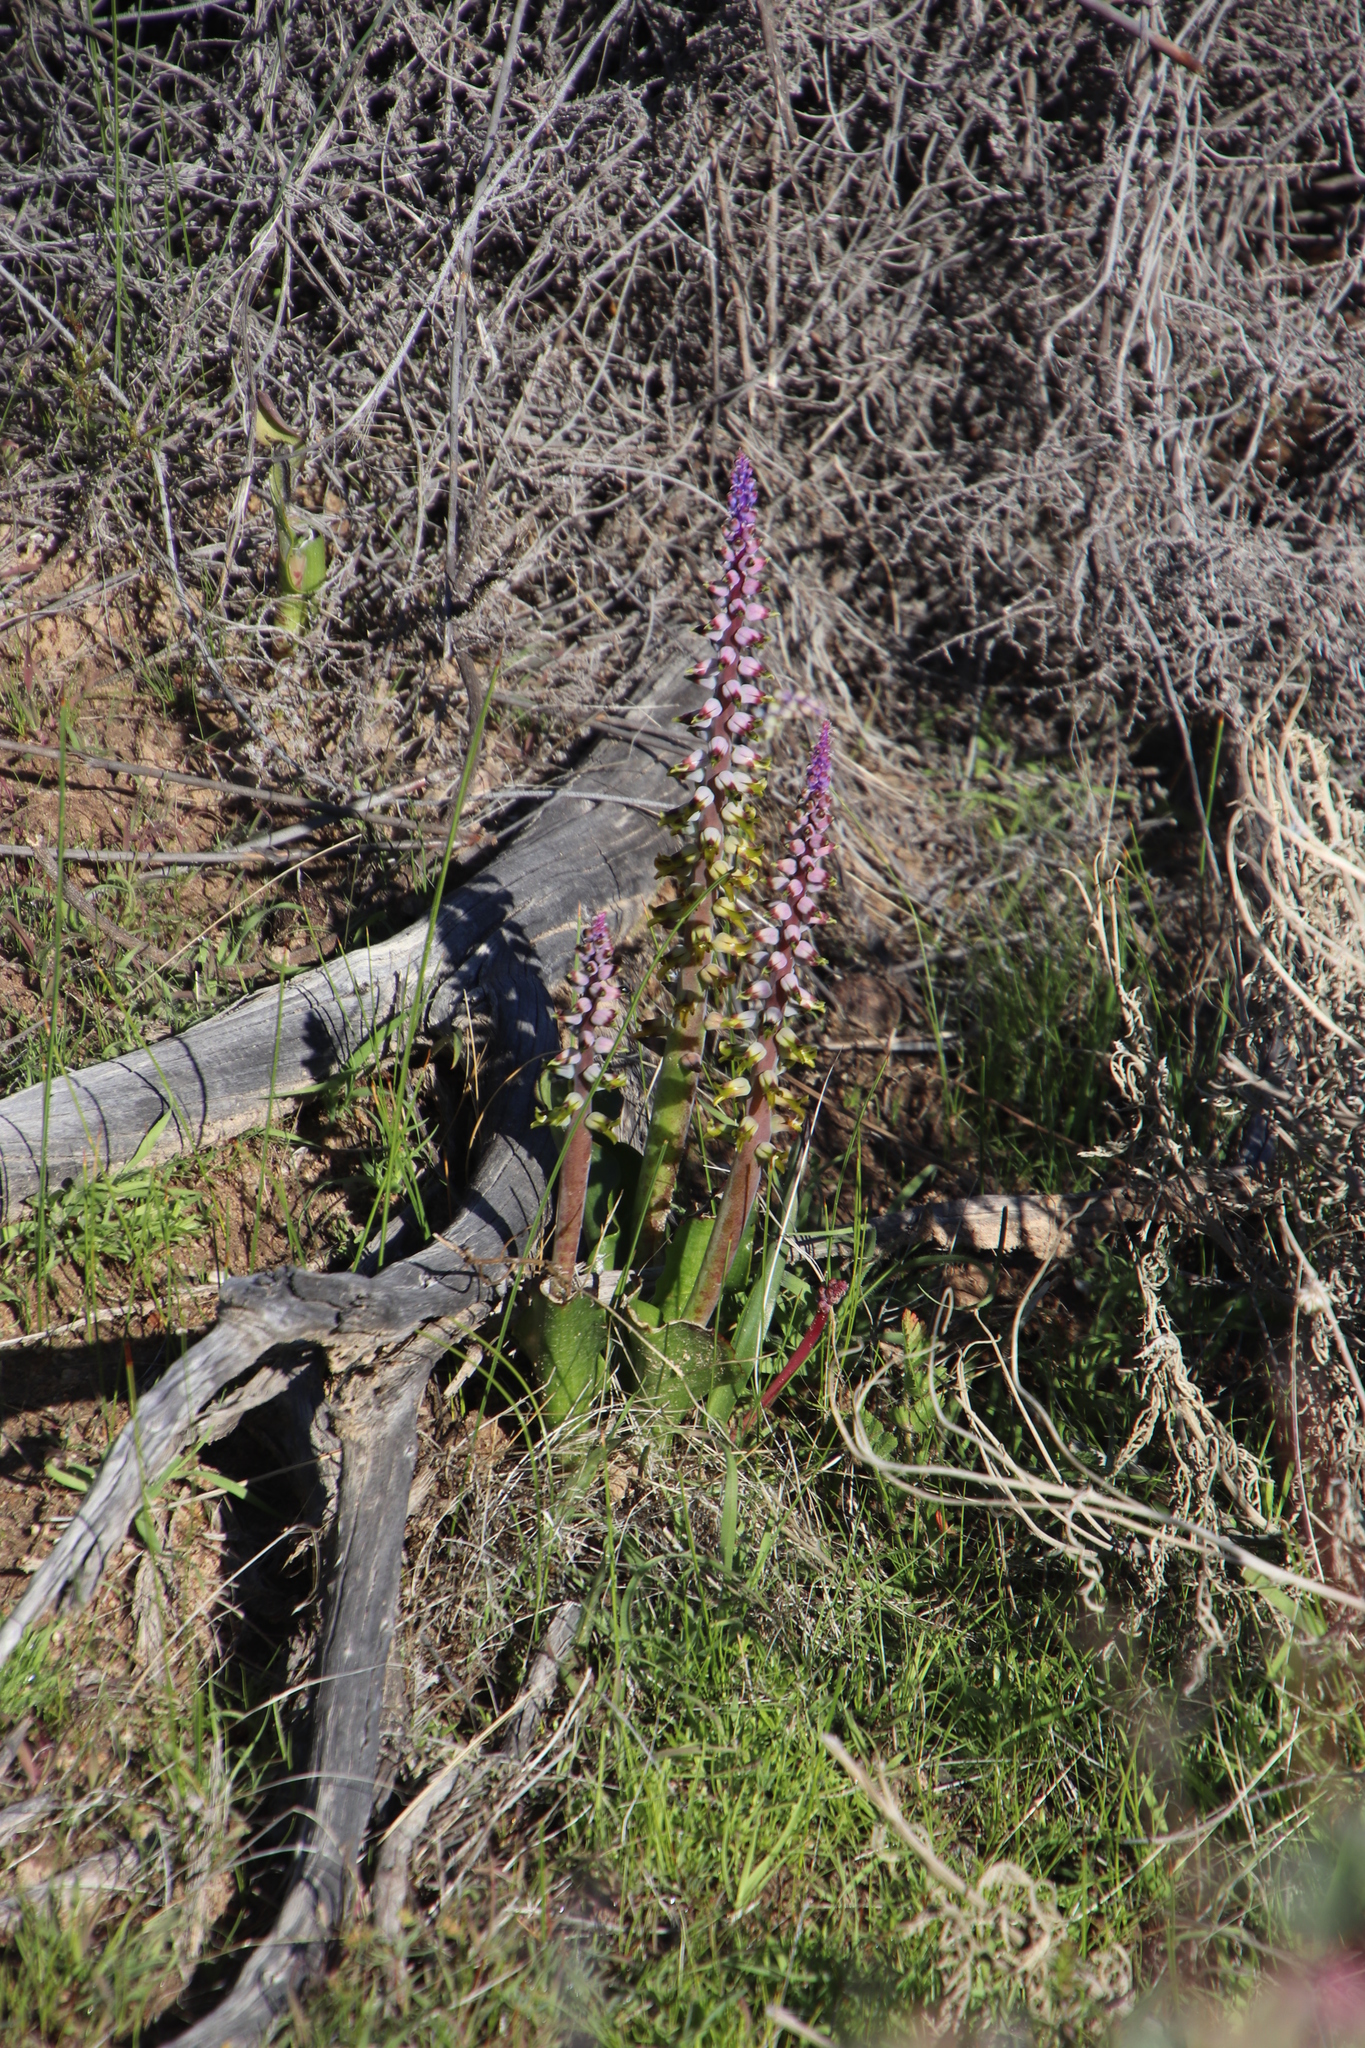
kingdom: Plantae
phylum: Tracheophyta
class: Liliopsida
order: Asparagales
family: Asparagaceae
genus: Lachenalia
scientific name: Lachenalia mutabilis
